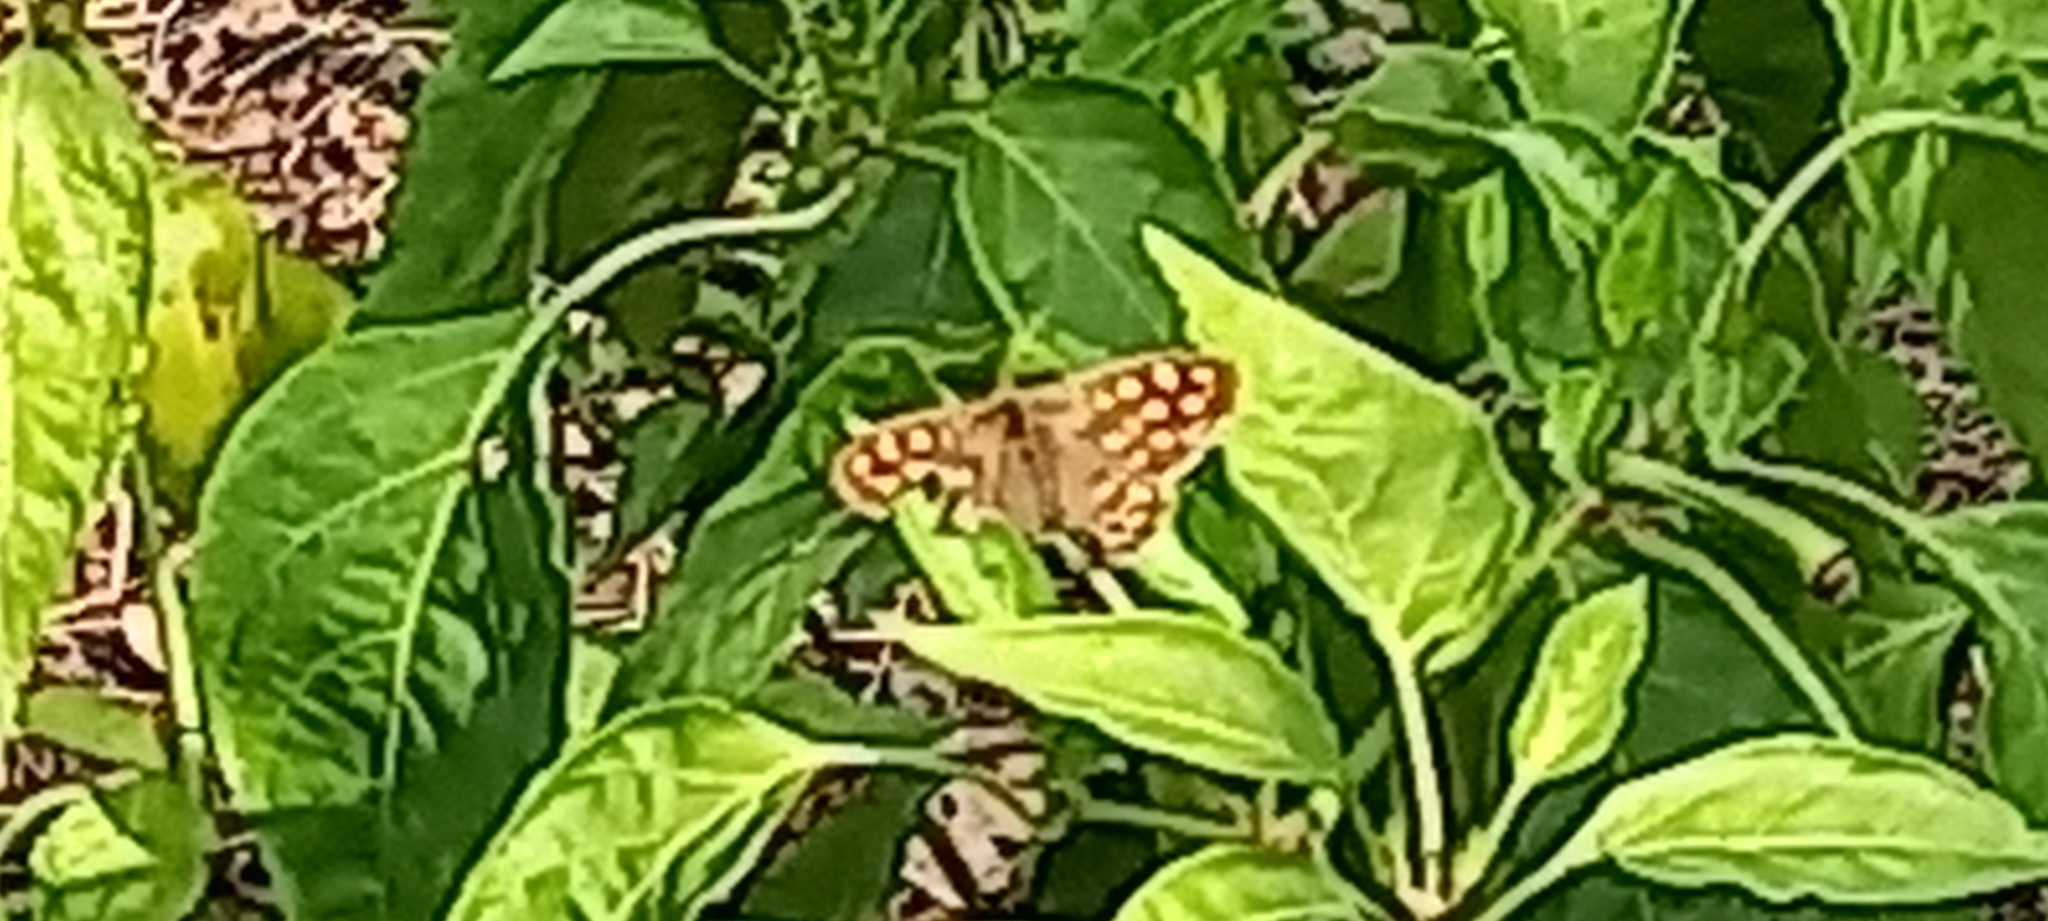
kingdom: Animalia
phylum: Arthropoda
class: Insecta
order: Lepidoptera
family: Nymphalidae
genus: Pararge
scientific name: Pararge aegeria
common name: Speckled wood
